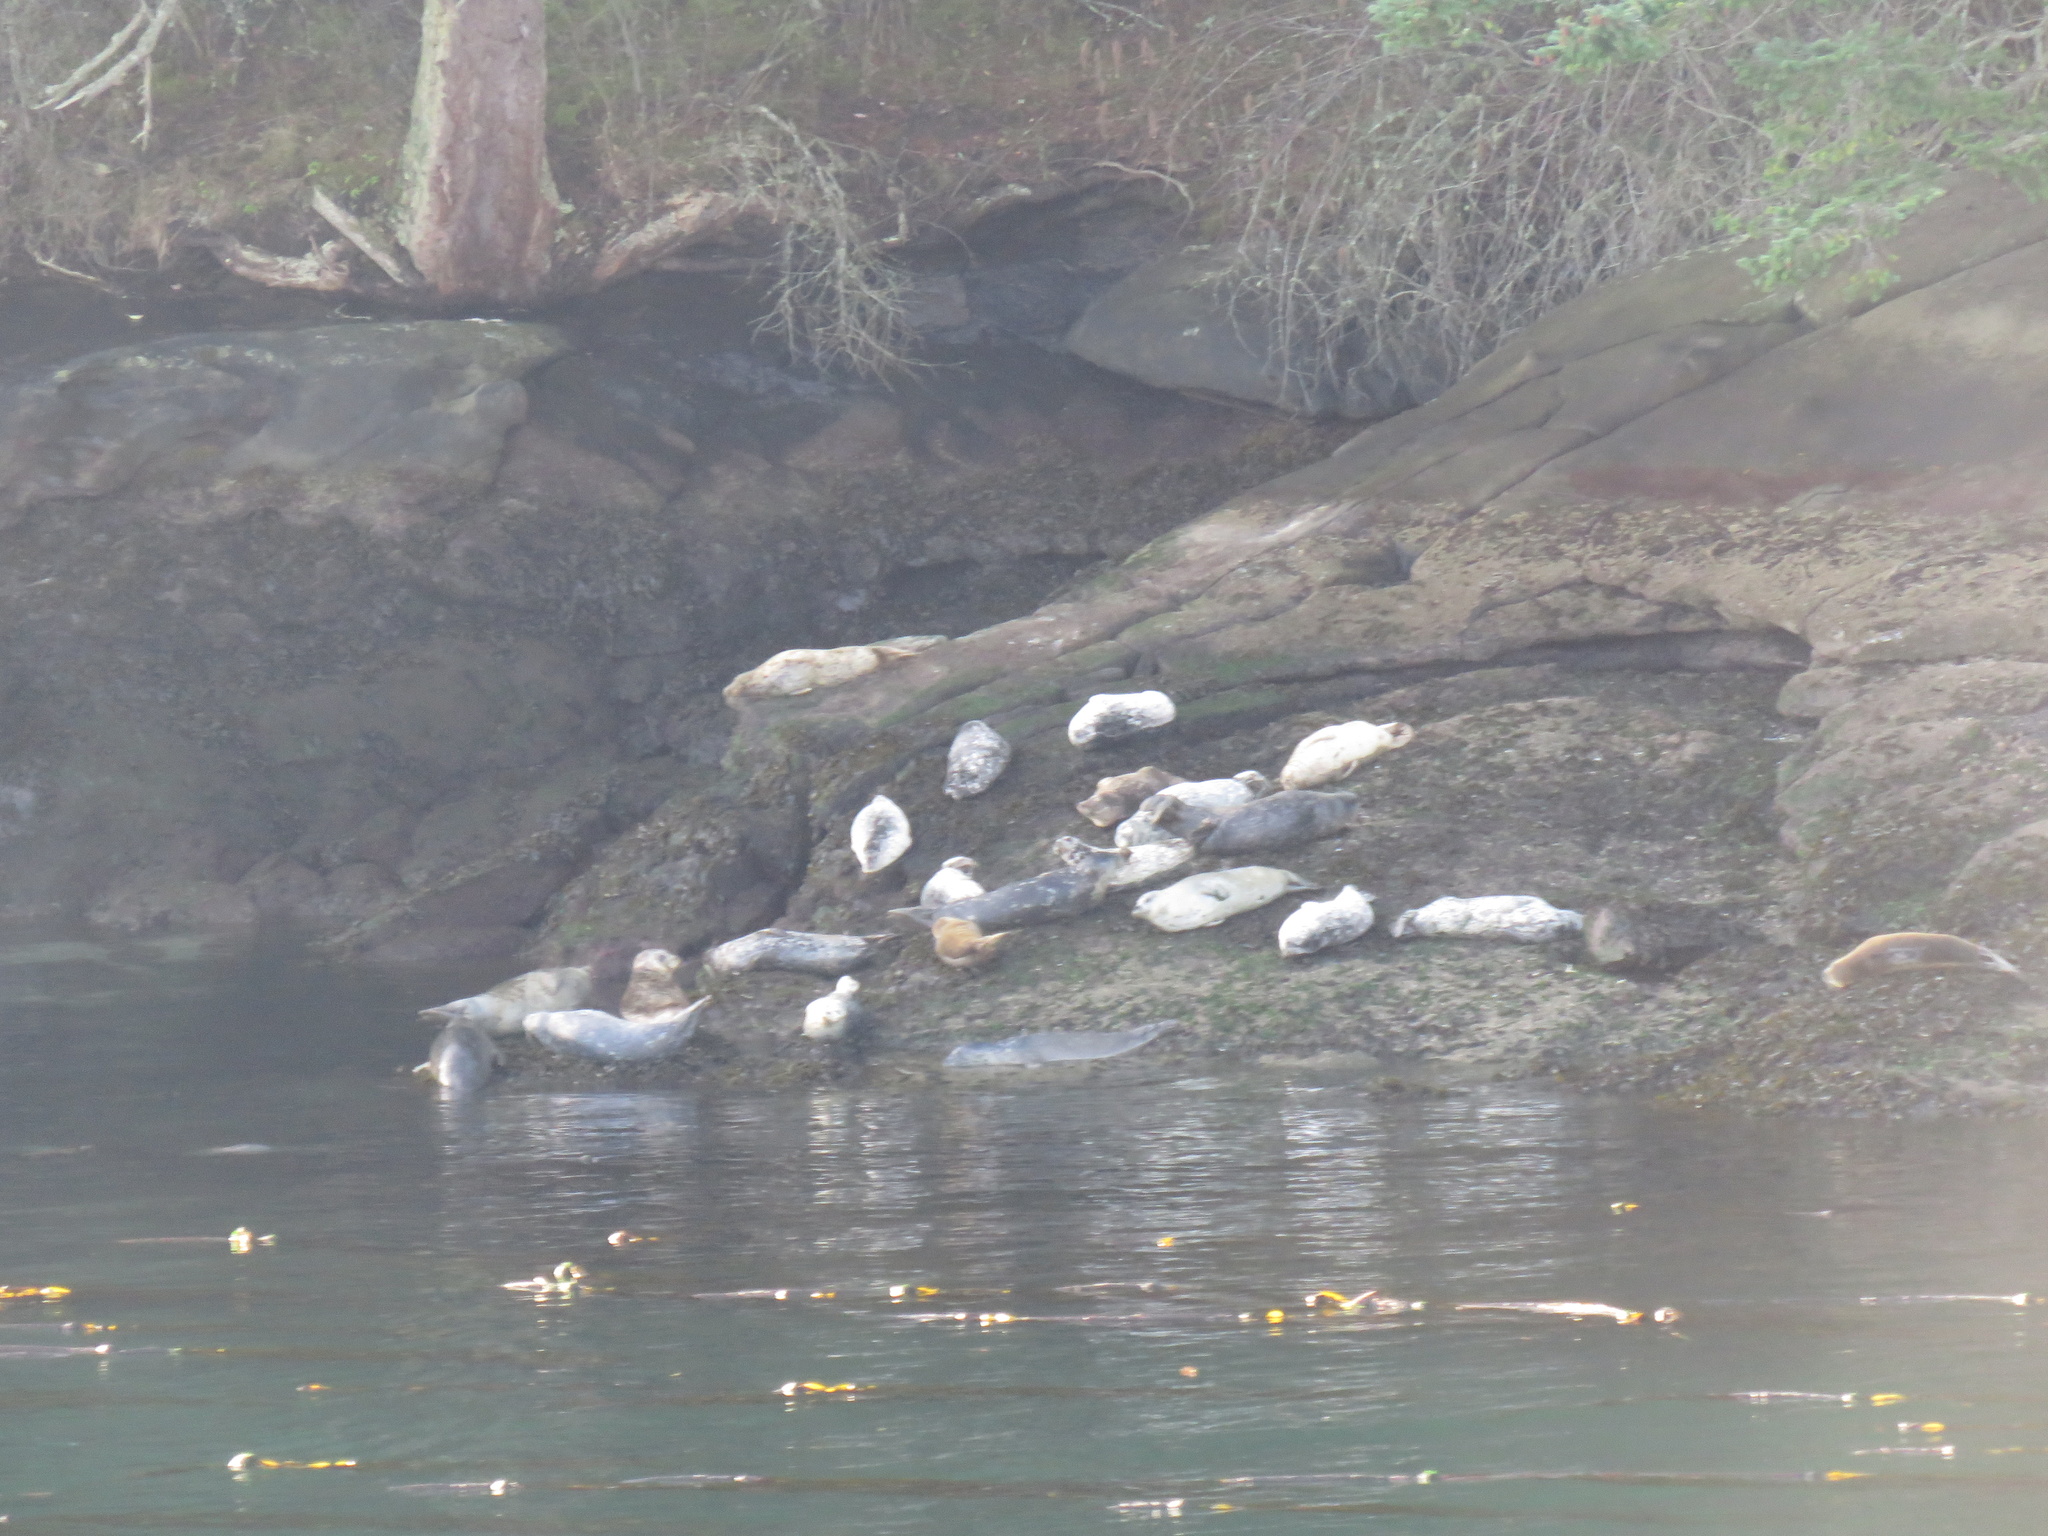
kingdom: Animalia
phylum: Chordata
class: Mammalia
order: Carnivora
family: Phocidae
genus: Phoca
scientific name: Phoca vitulina
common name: Harbor seal
